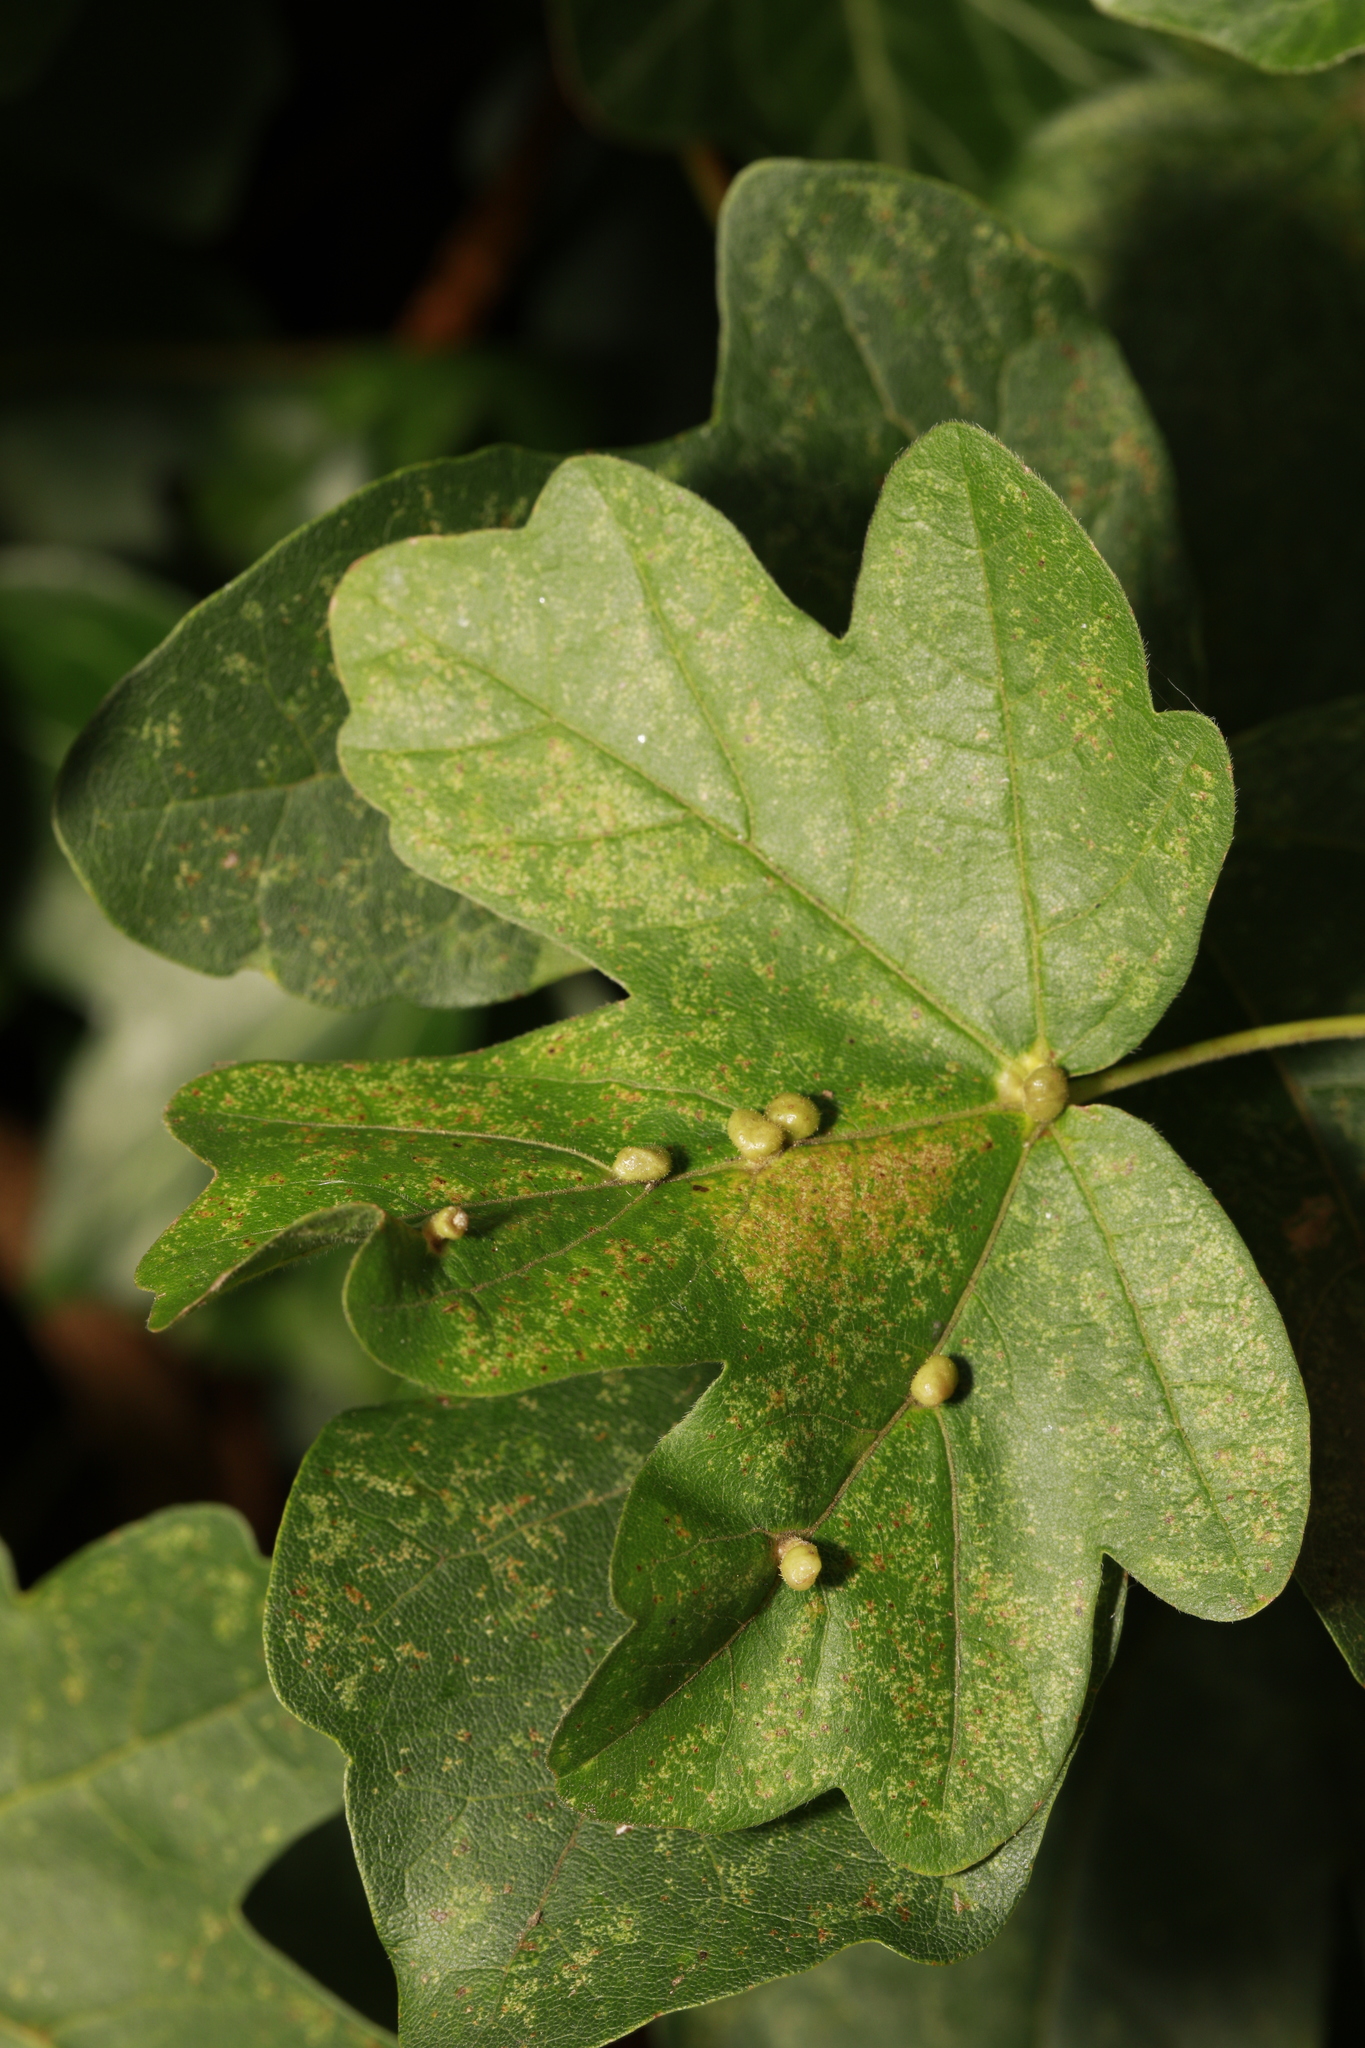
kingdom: Animalia
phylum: Arthropoda
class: Arachnida
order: Trombidiformes
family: Eriophyidae
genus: Aceria
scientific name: Aceria macrochelus
